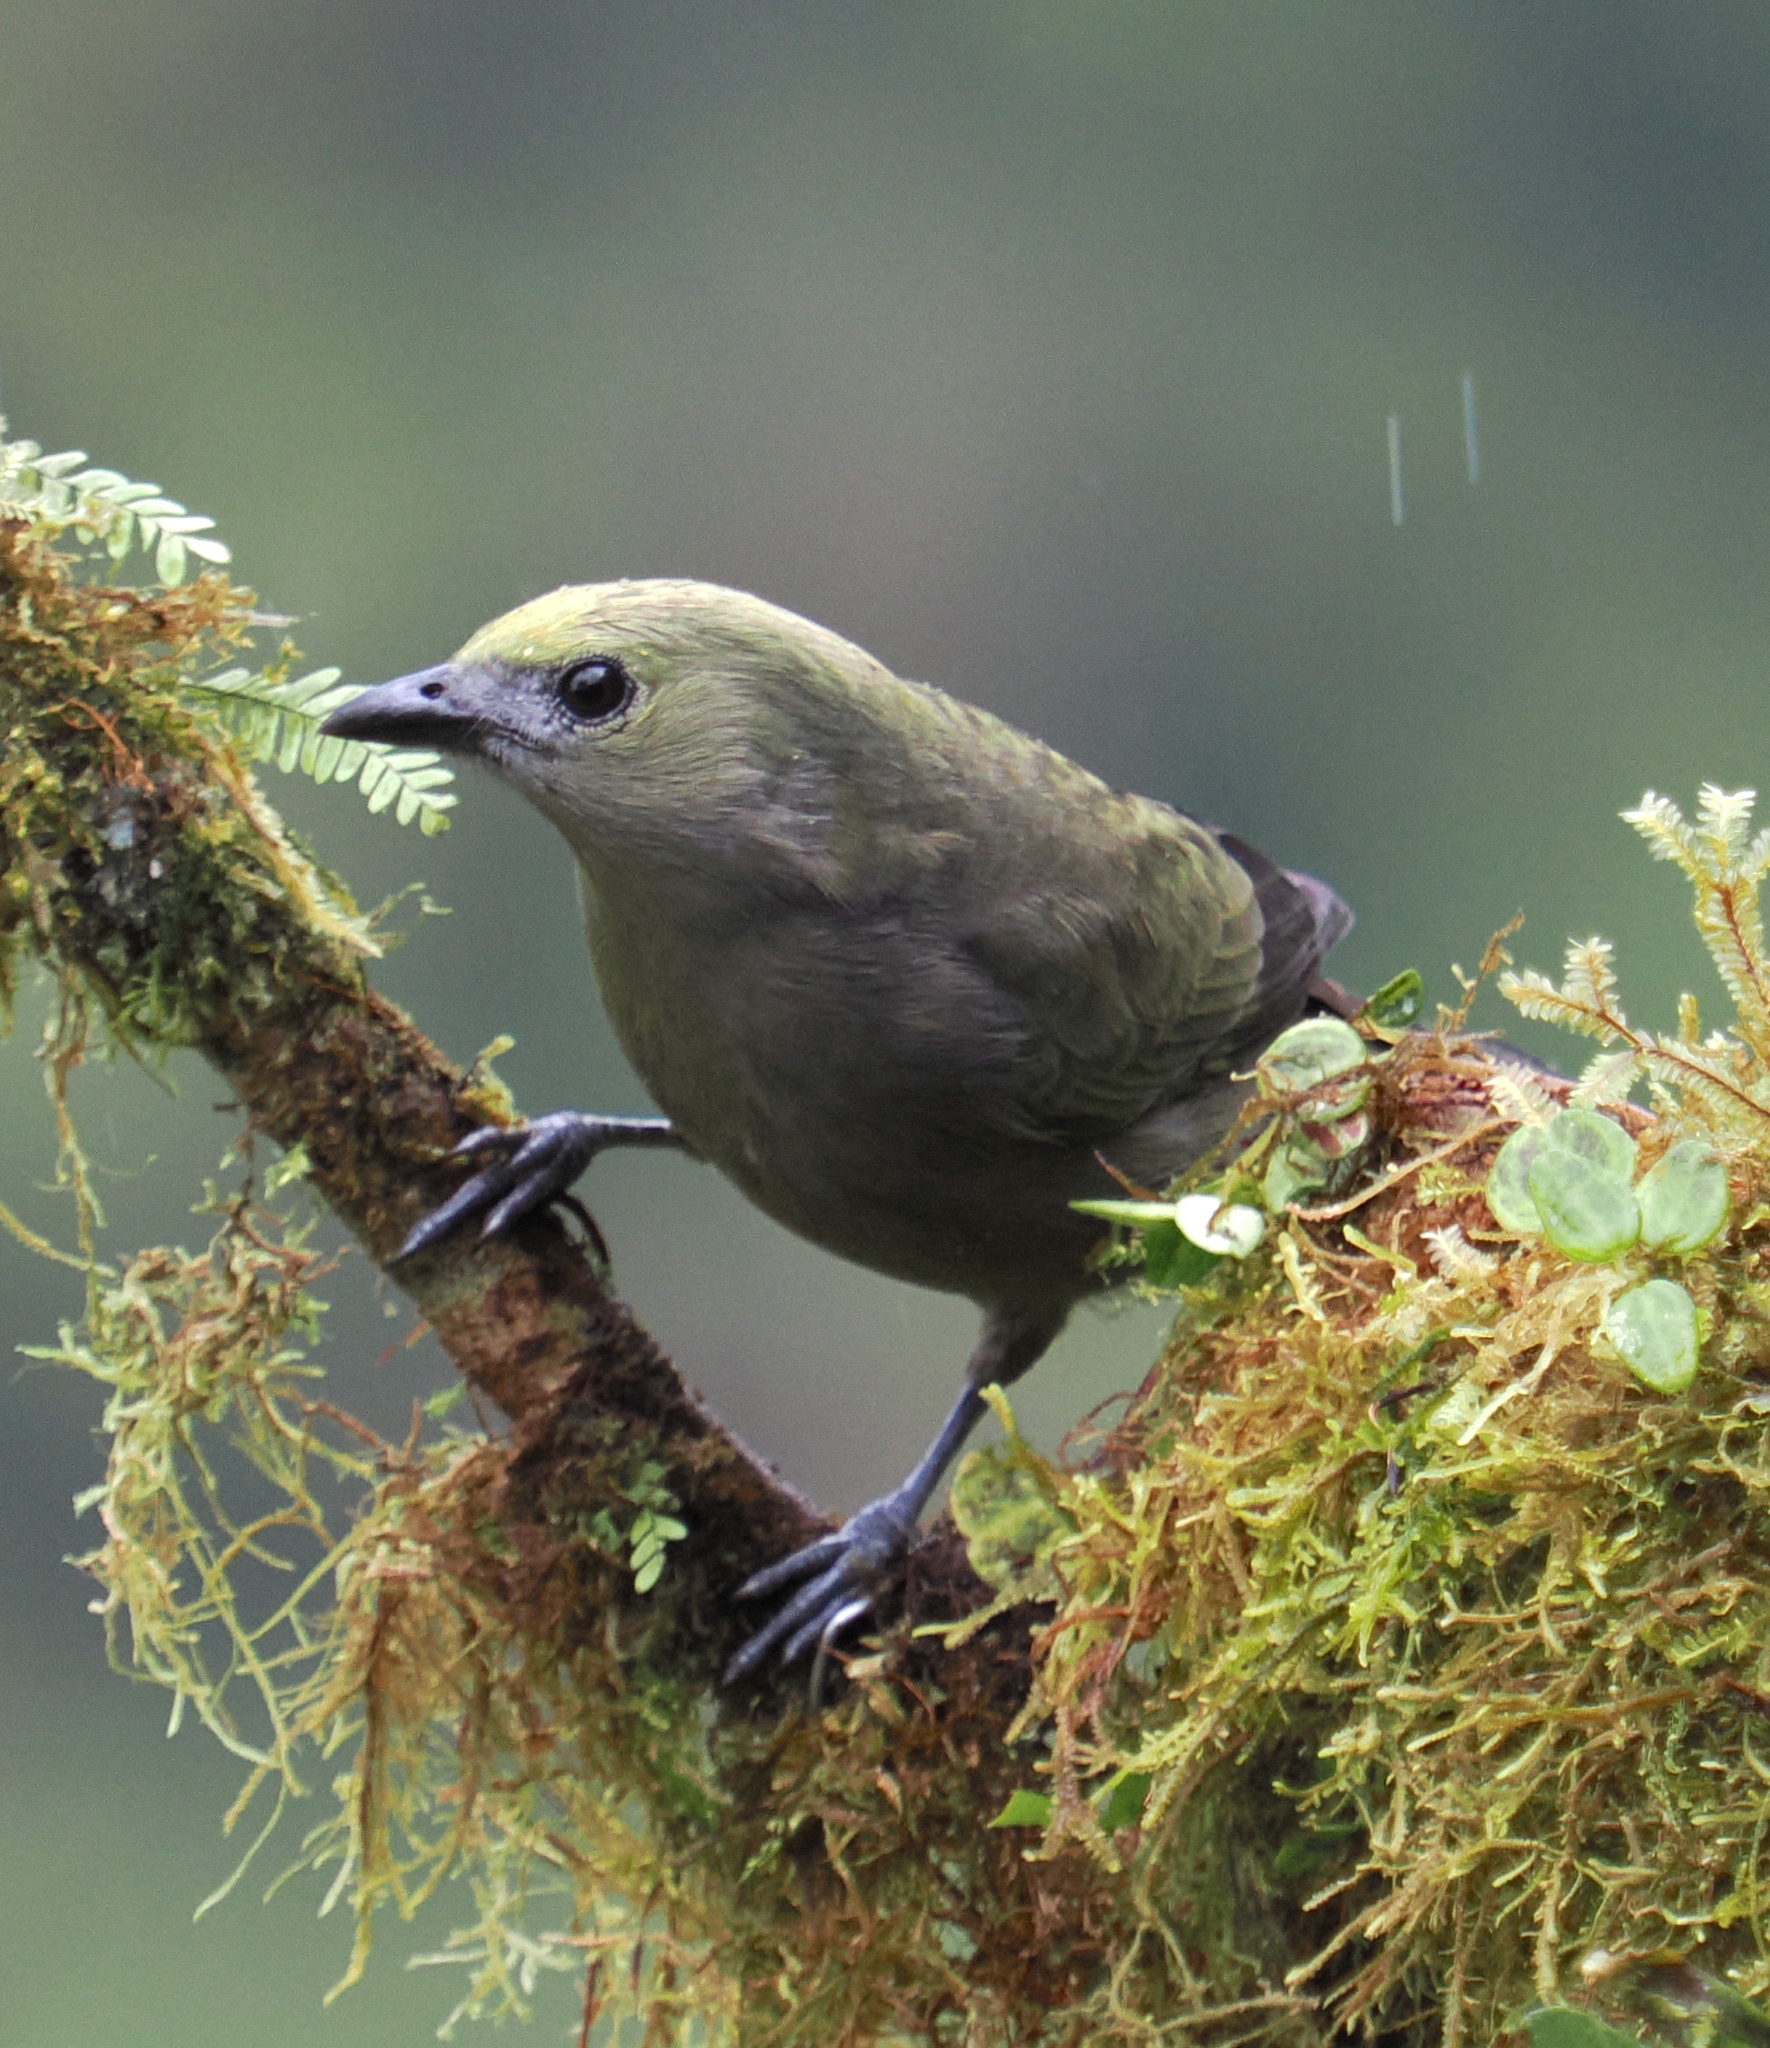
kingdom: Animalia
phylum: Chordata
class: Aves
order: Passeriformes
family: Thraupidae
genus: Thraupis
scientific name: Thraupis palmarum
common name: Palm tanager
